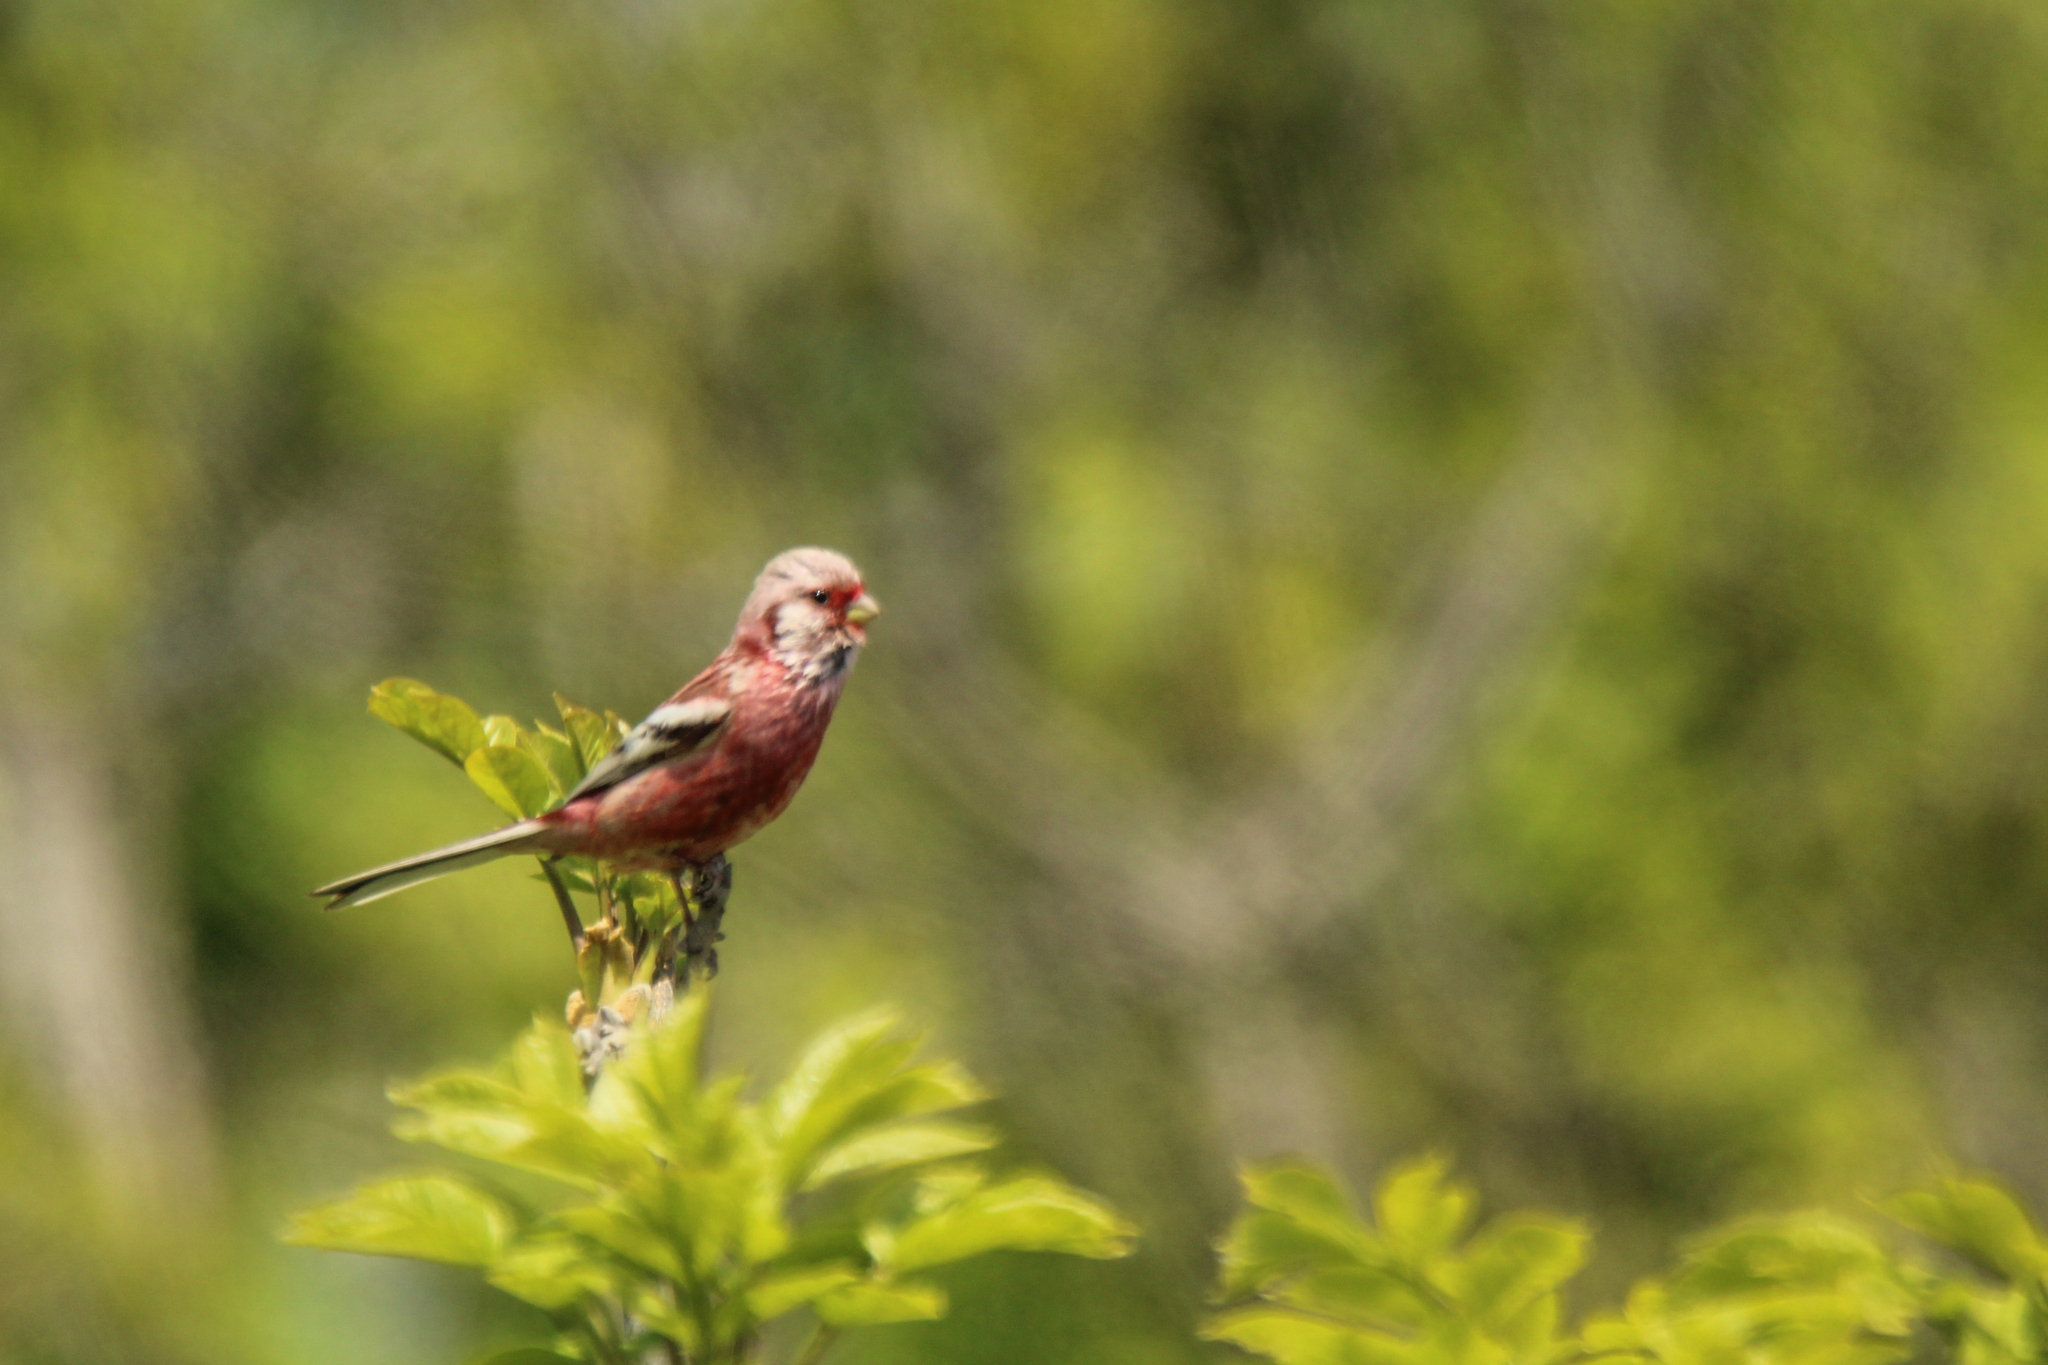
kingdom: Animalia
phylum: Chordata
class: Aves
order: Passeriformes
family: Fringillidae
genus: Carpodacus
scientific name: Carpodacus sibiricus
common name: Long-tailed rosefinch
